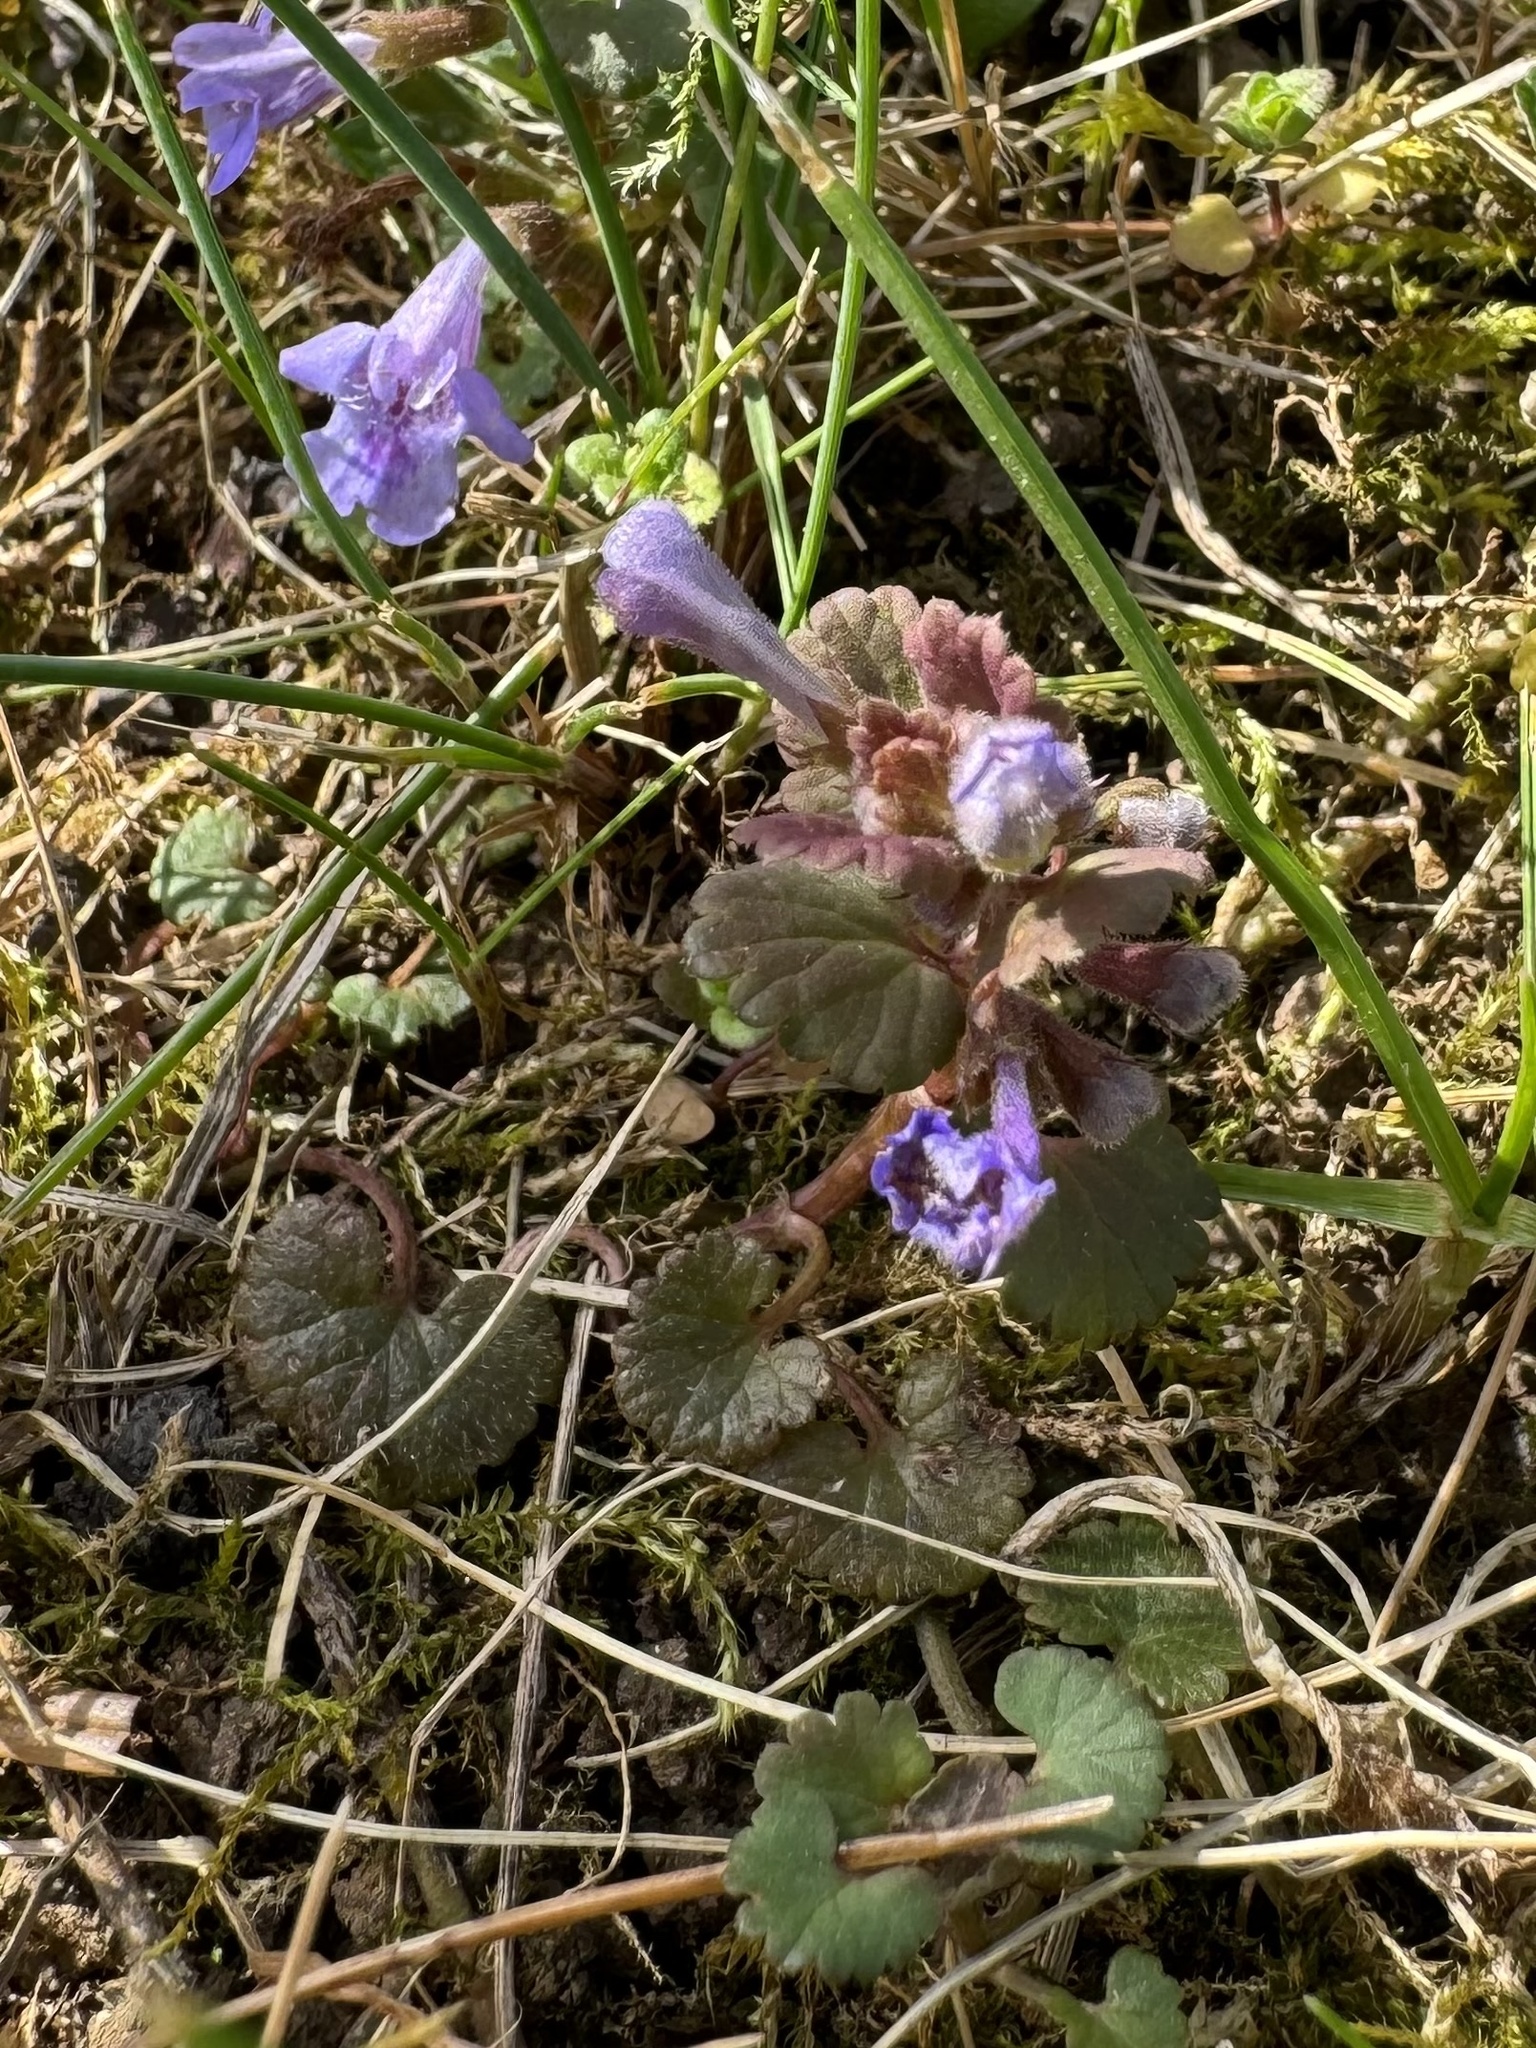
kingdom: Plantae
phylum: Tracheophyta
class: Magnoliopsida
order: Lamiales
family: Lamiaceae
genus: Glechoma
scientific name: Glechoma hederacea
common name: Ground ivy
